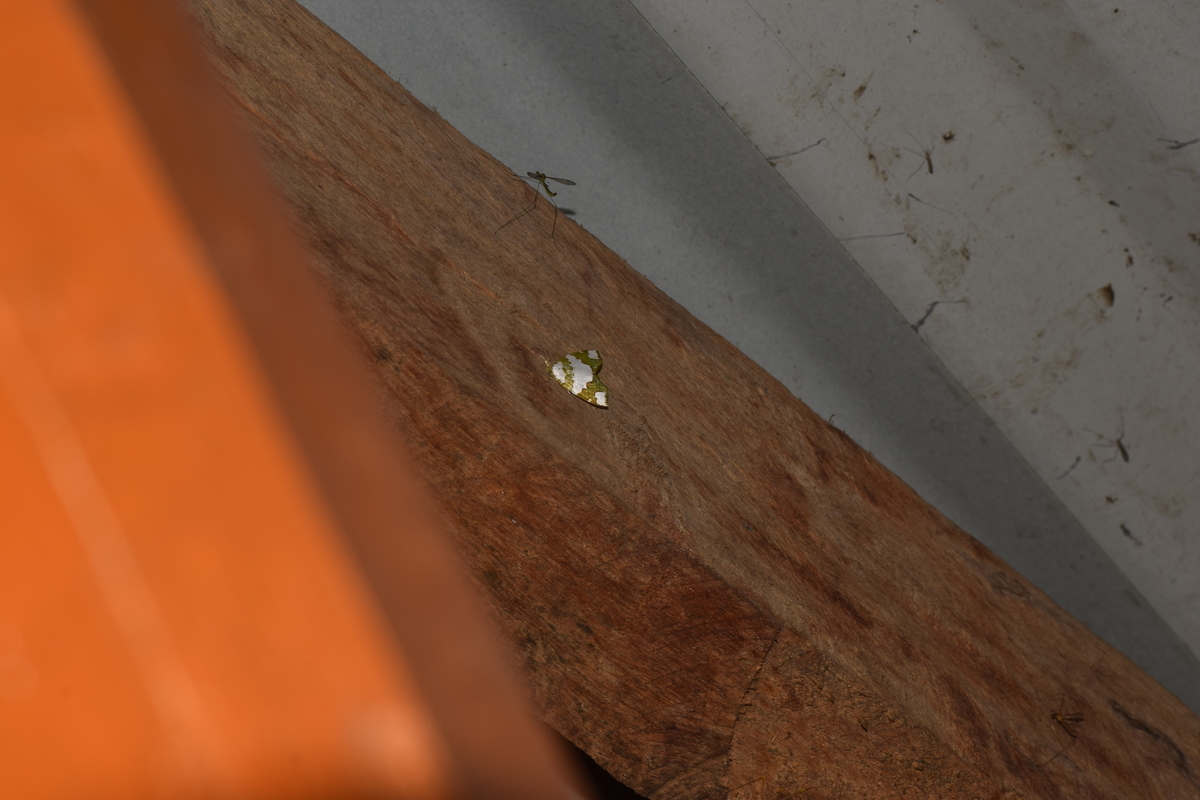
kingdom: Animalia
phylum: Arthropoda
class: Insecta
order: Lepidoptera
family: Nolidae
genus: Ariolica
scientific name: Ariolica pulchella
